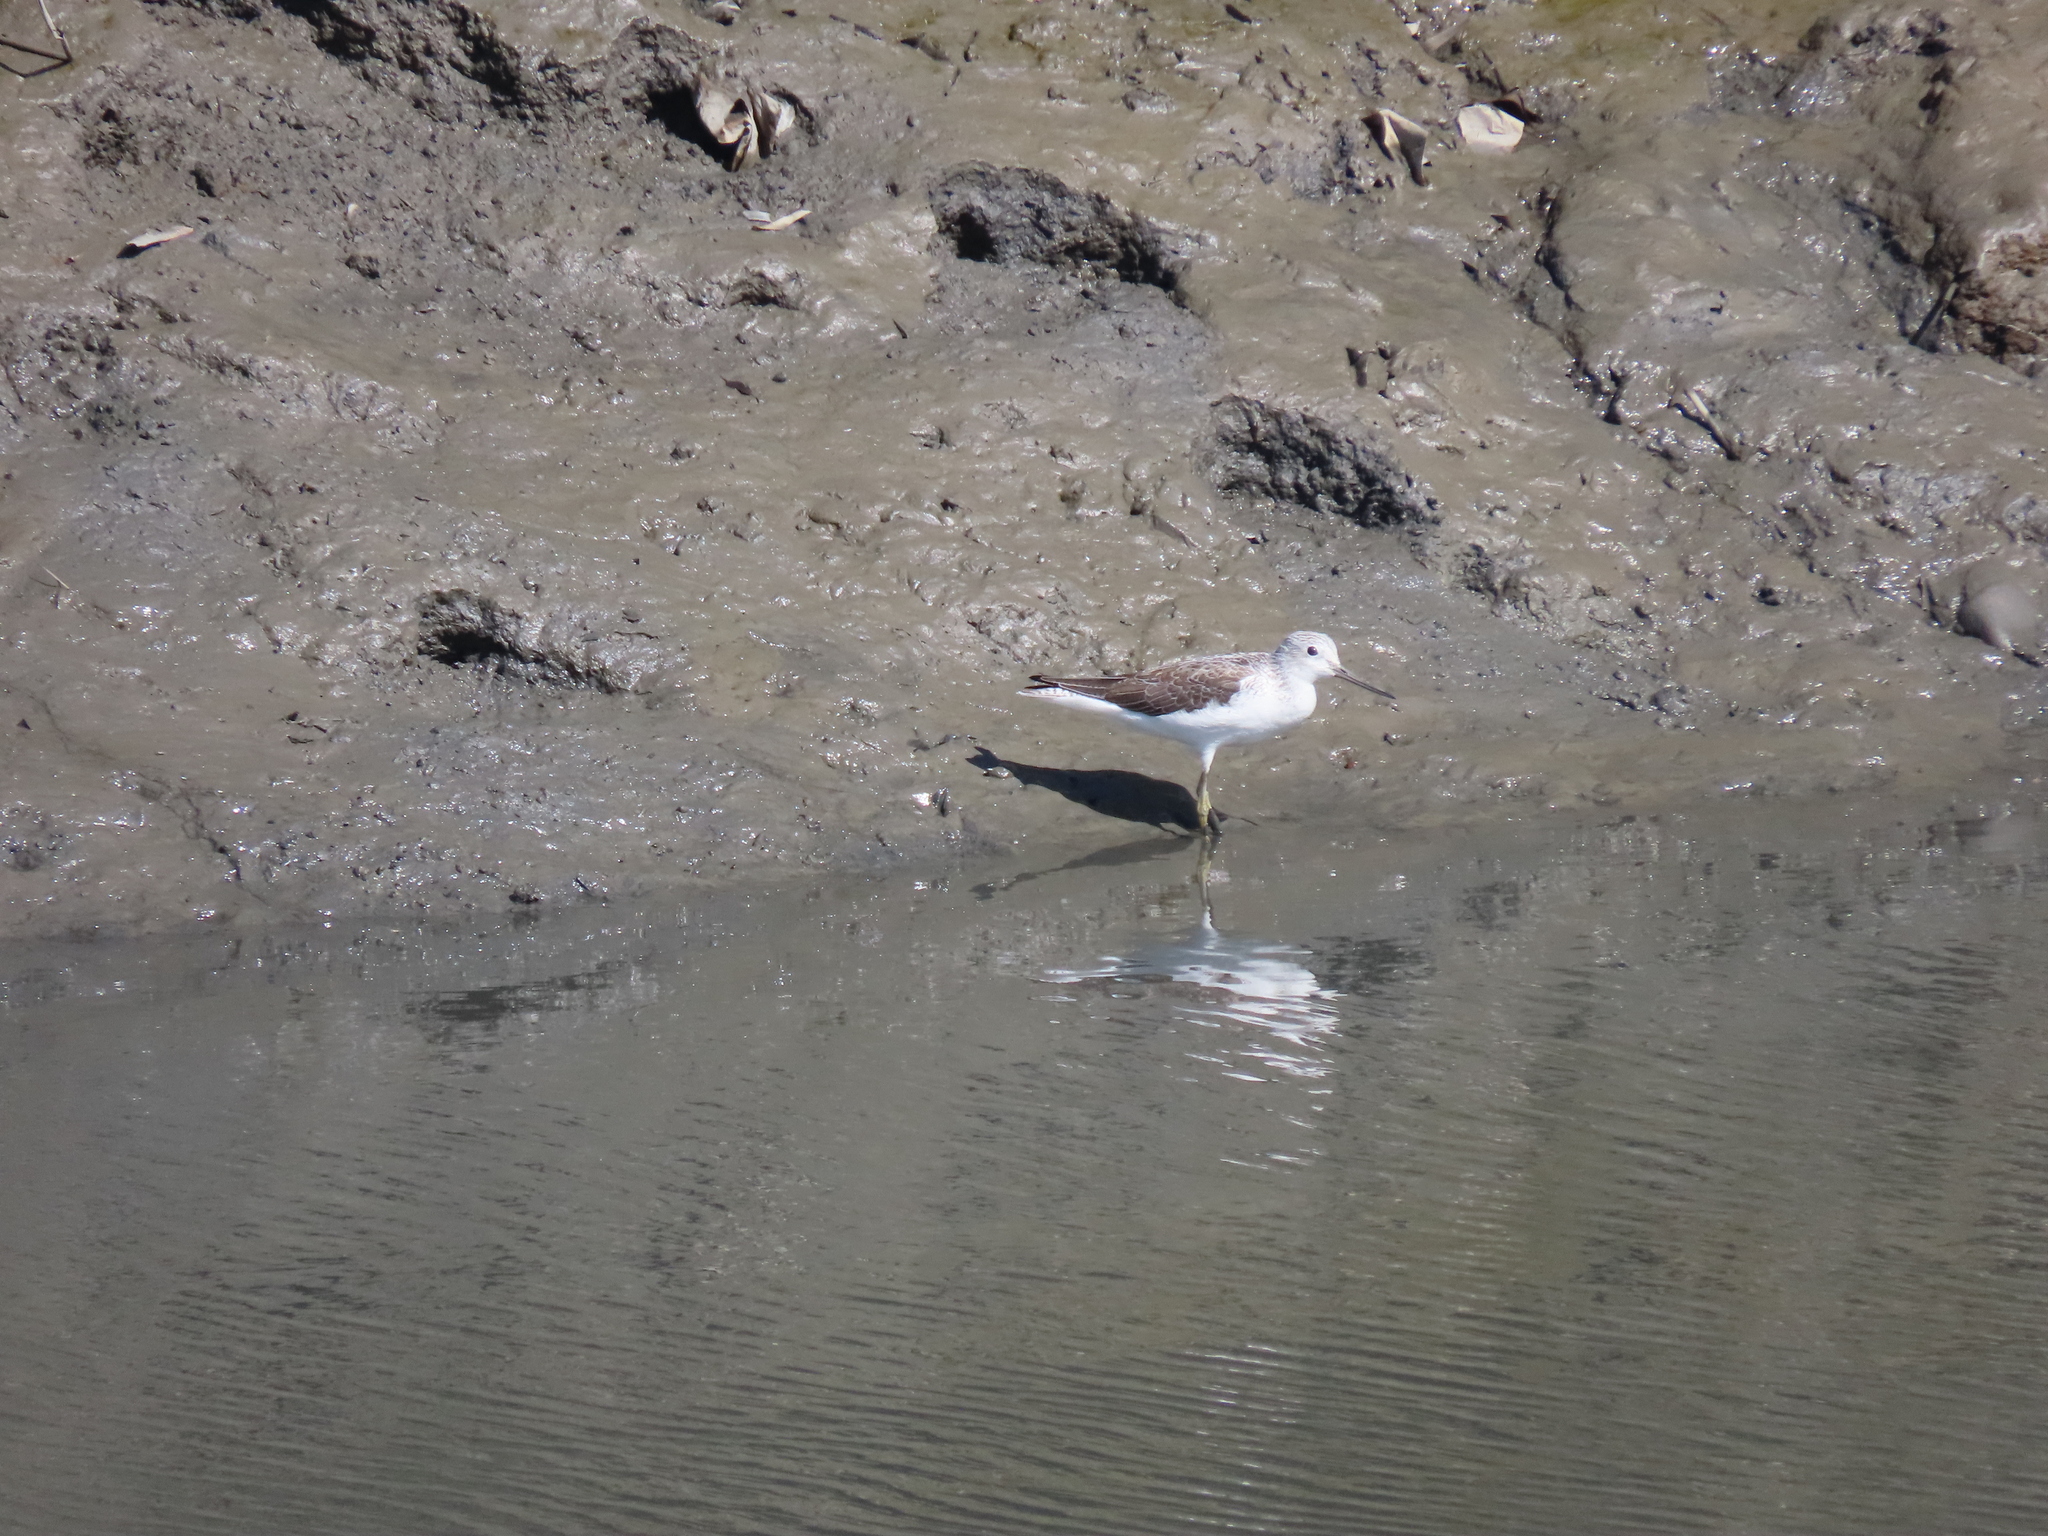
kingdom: Animalia
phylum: Chordata
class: Aves
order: Charadriiformes
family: Scolopacidae
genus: Tringa
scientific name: Tringa nebularia
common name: Common greenshank
